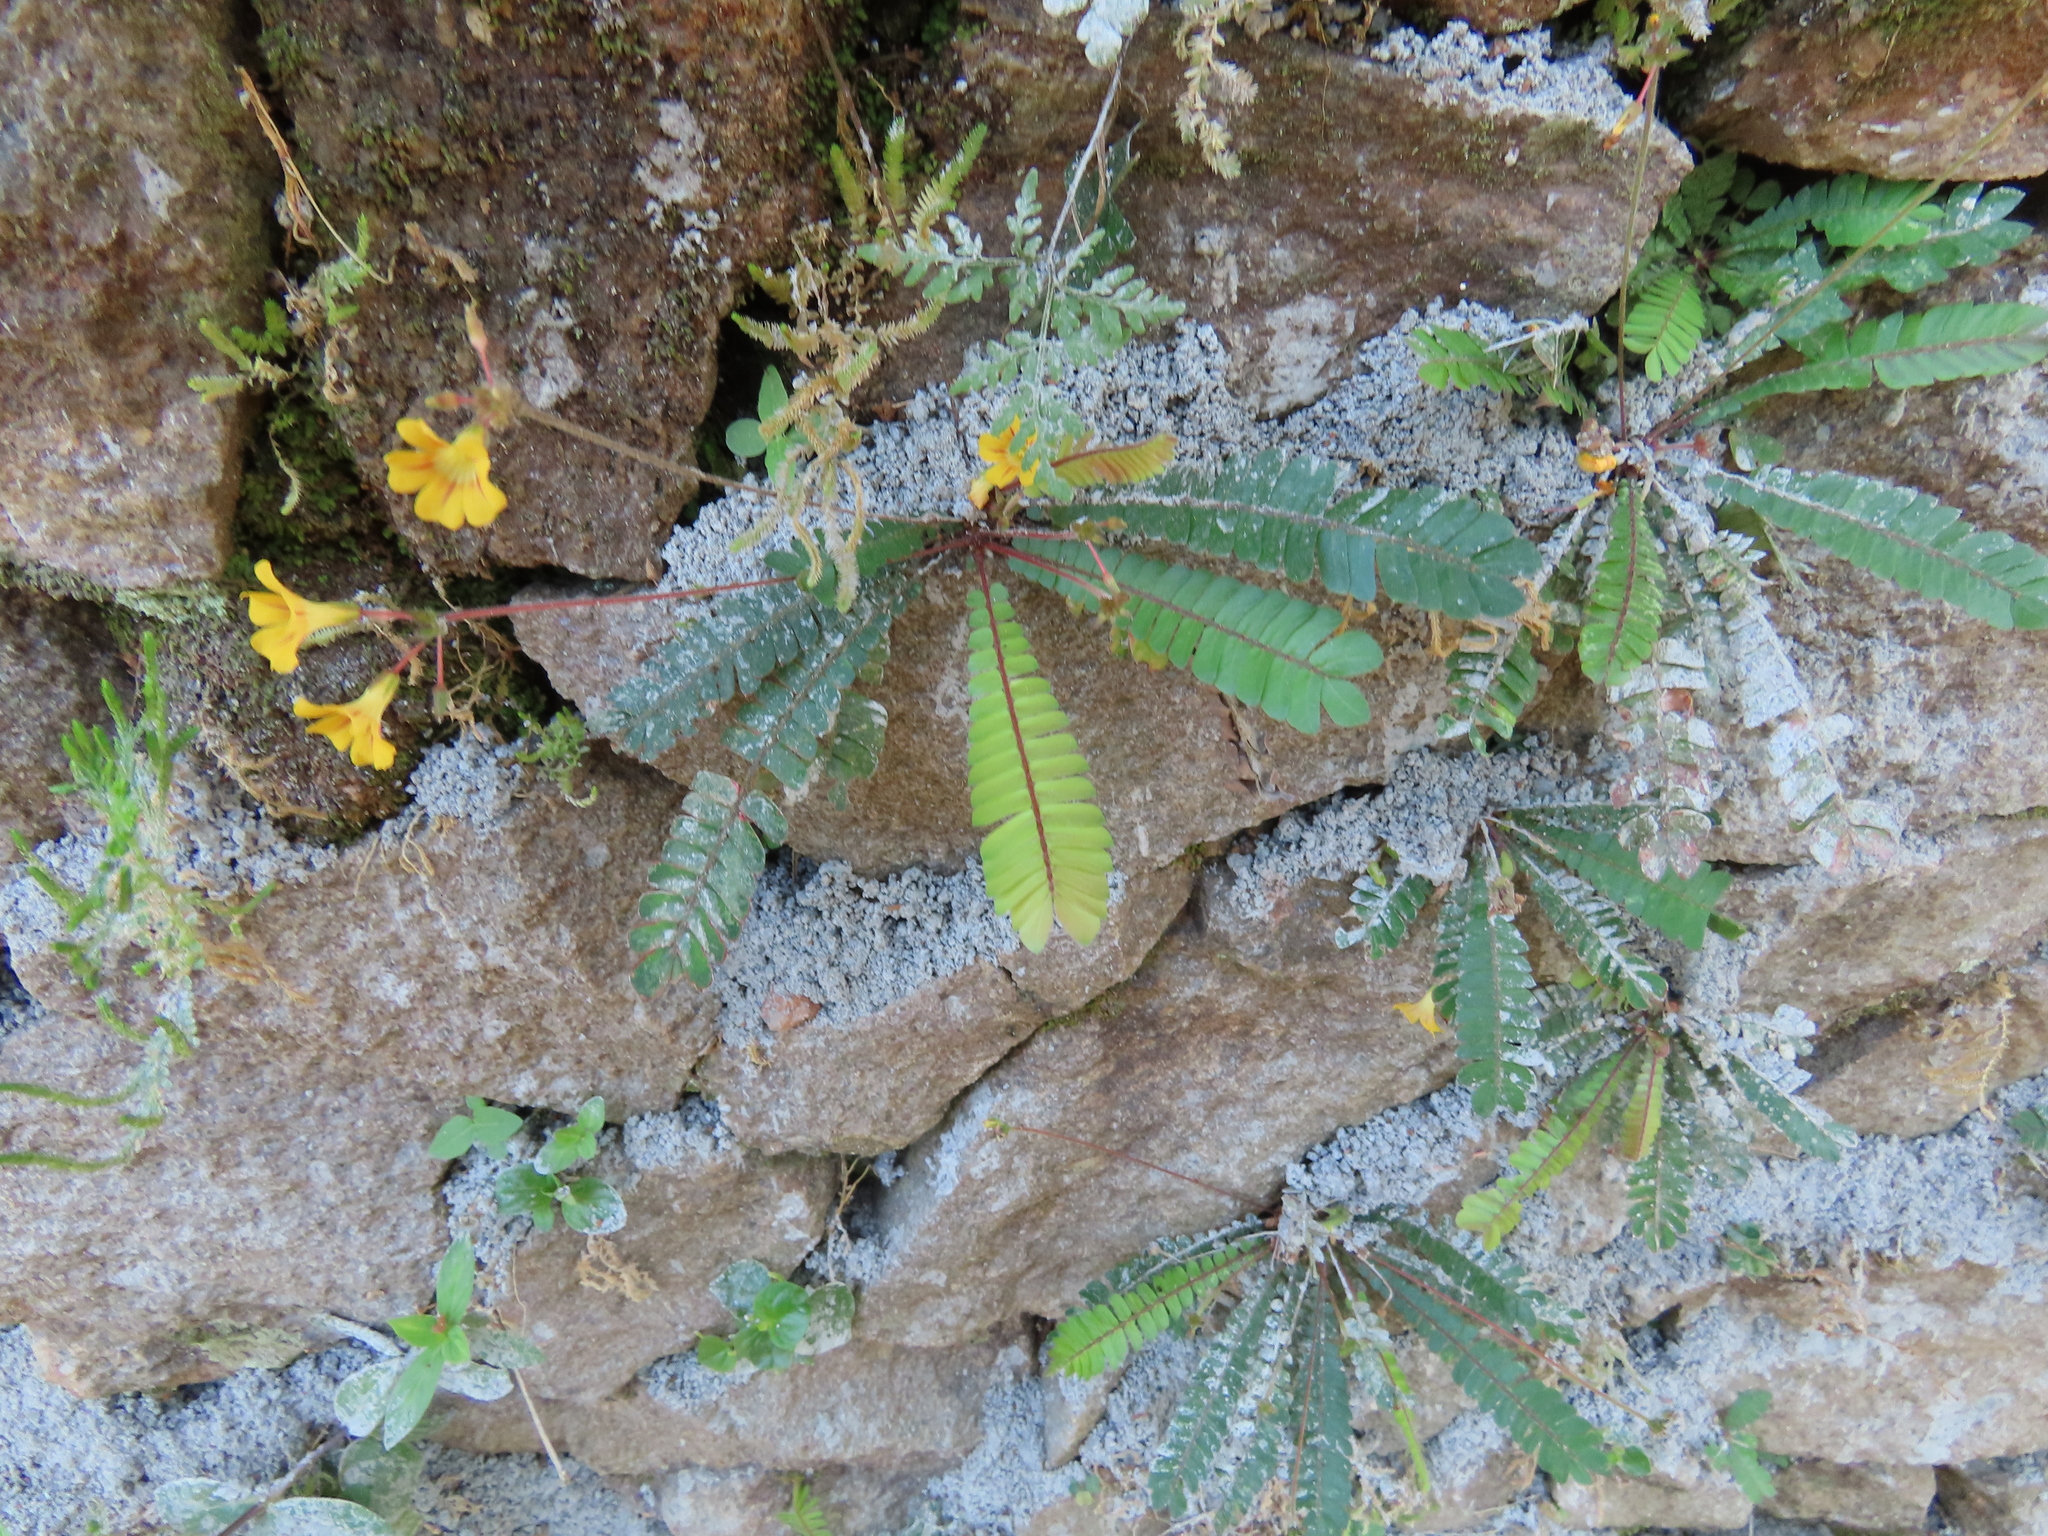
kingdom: Plantae
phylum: Tracheophyta
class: Magnoliopsida
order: Oxalidales
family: Oxalidaceae
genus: Biophytum
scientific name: Biophytum sensitivum
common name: Lifeplant
